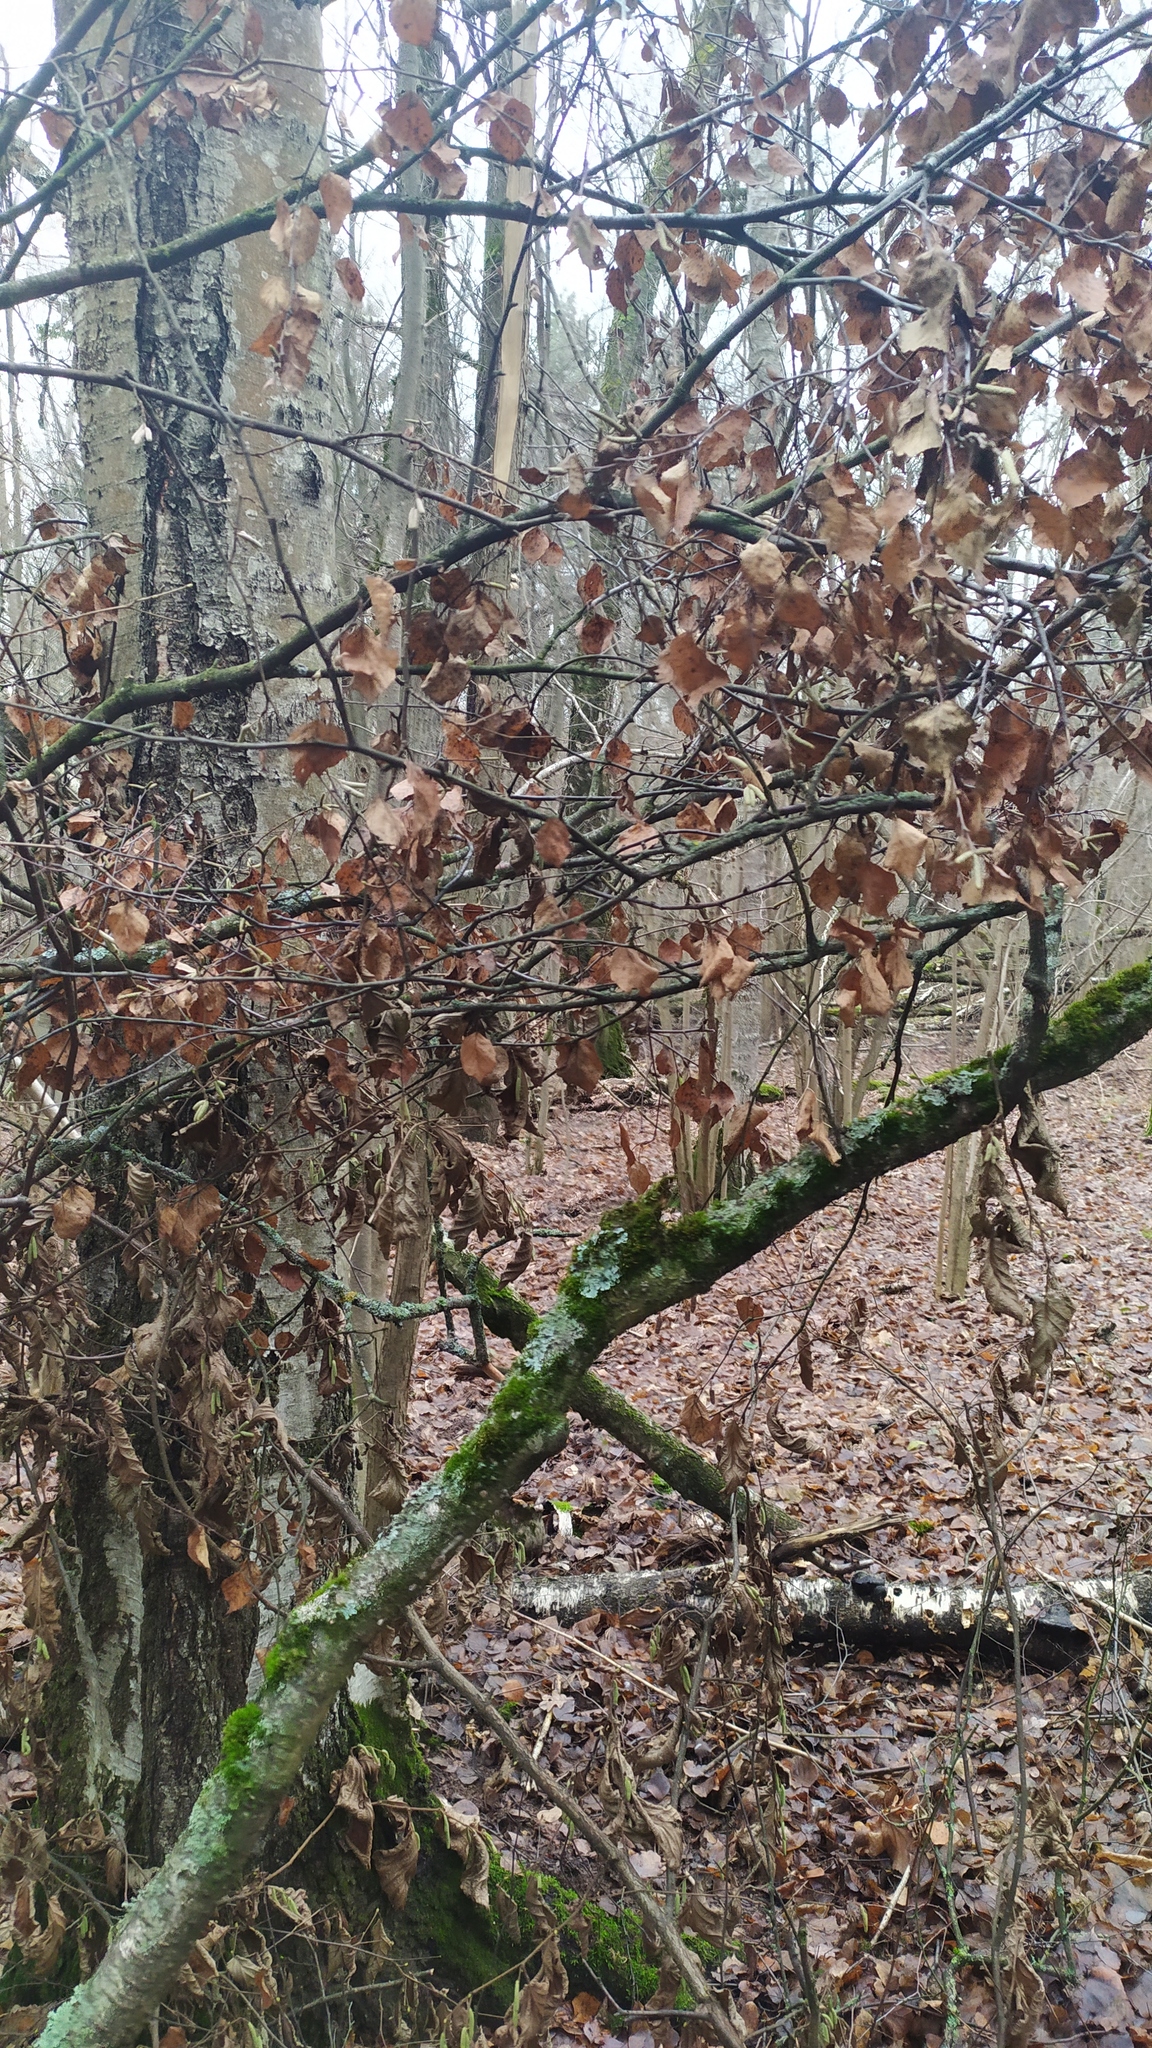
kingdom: Plantae
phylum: Tracheophyta
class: Magnoliopsida
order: Fagales
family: Betulaceae
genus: Betula
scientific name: Betula pendula
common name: Silver birch
